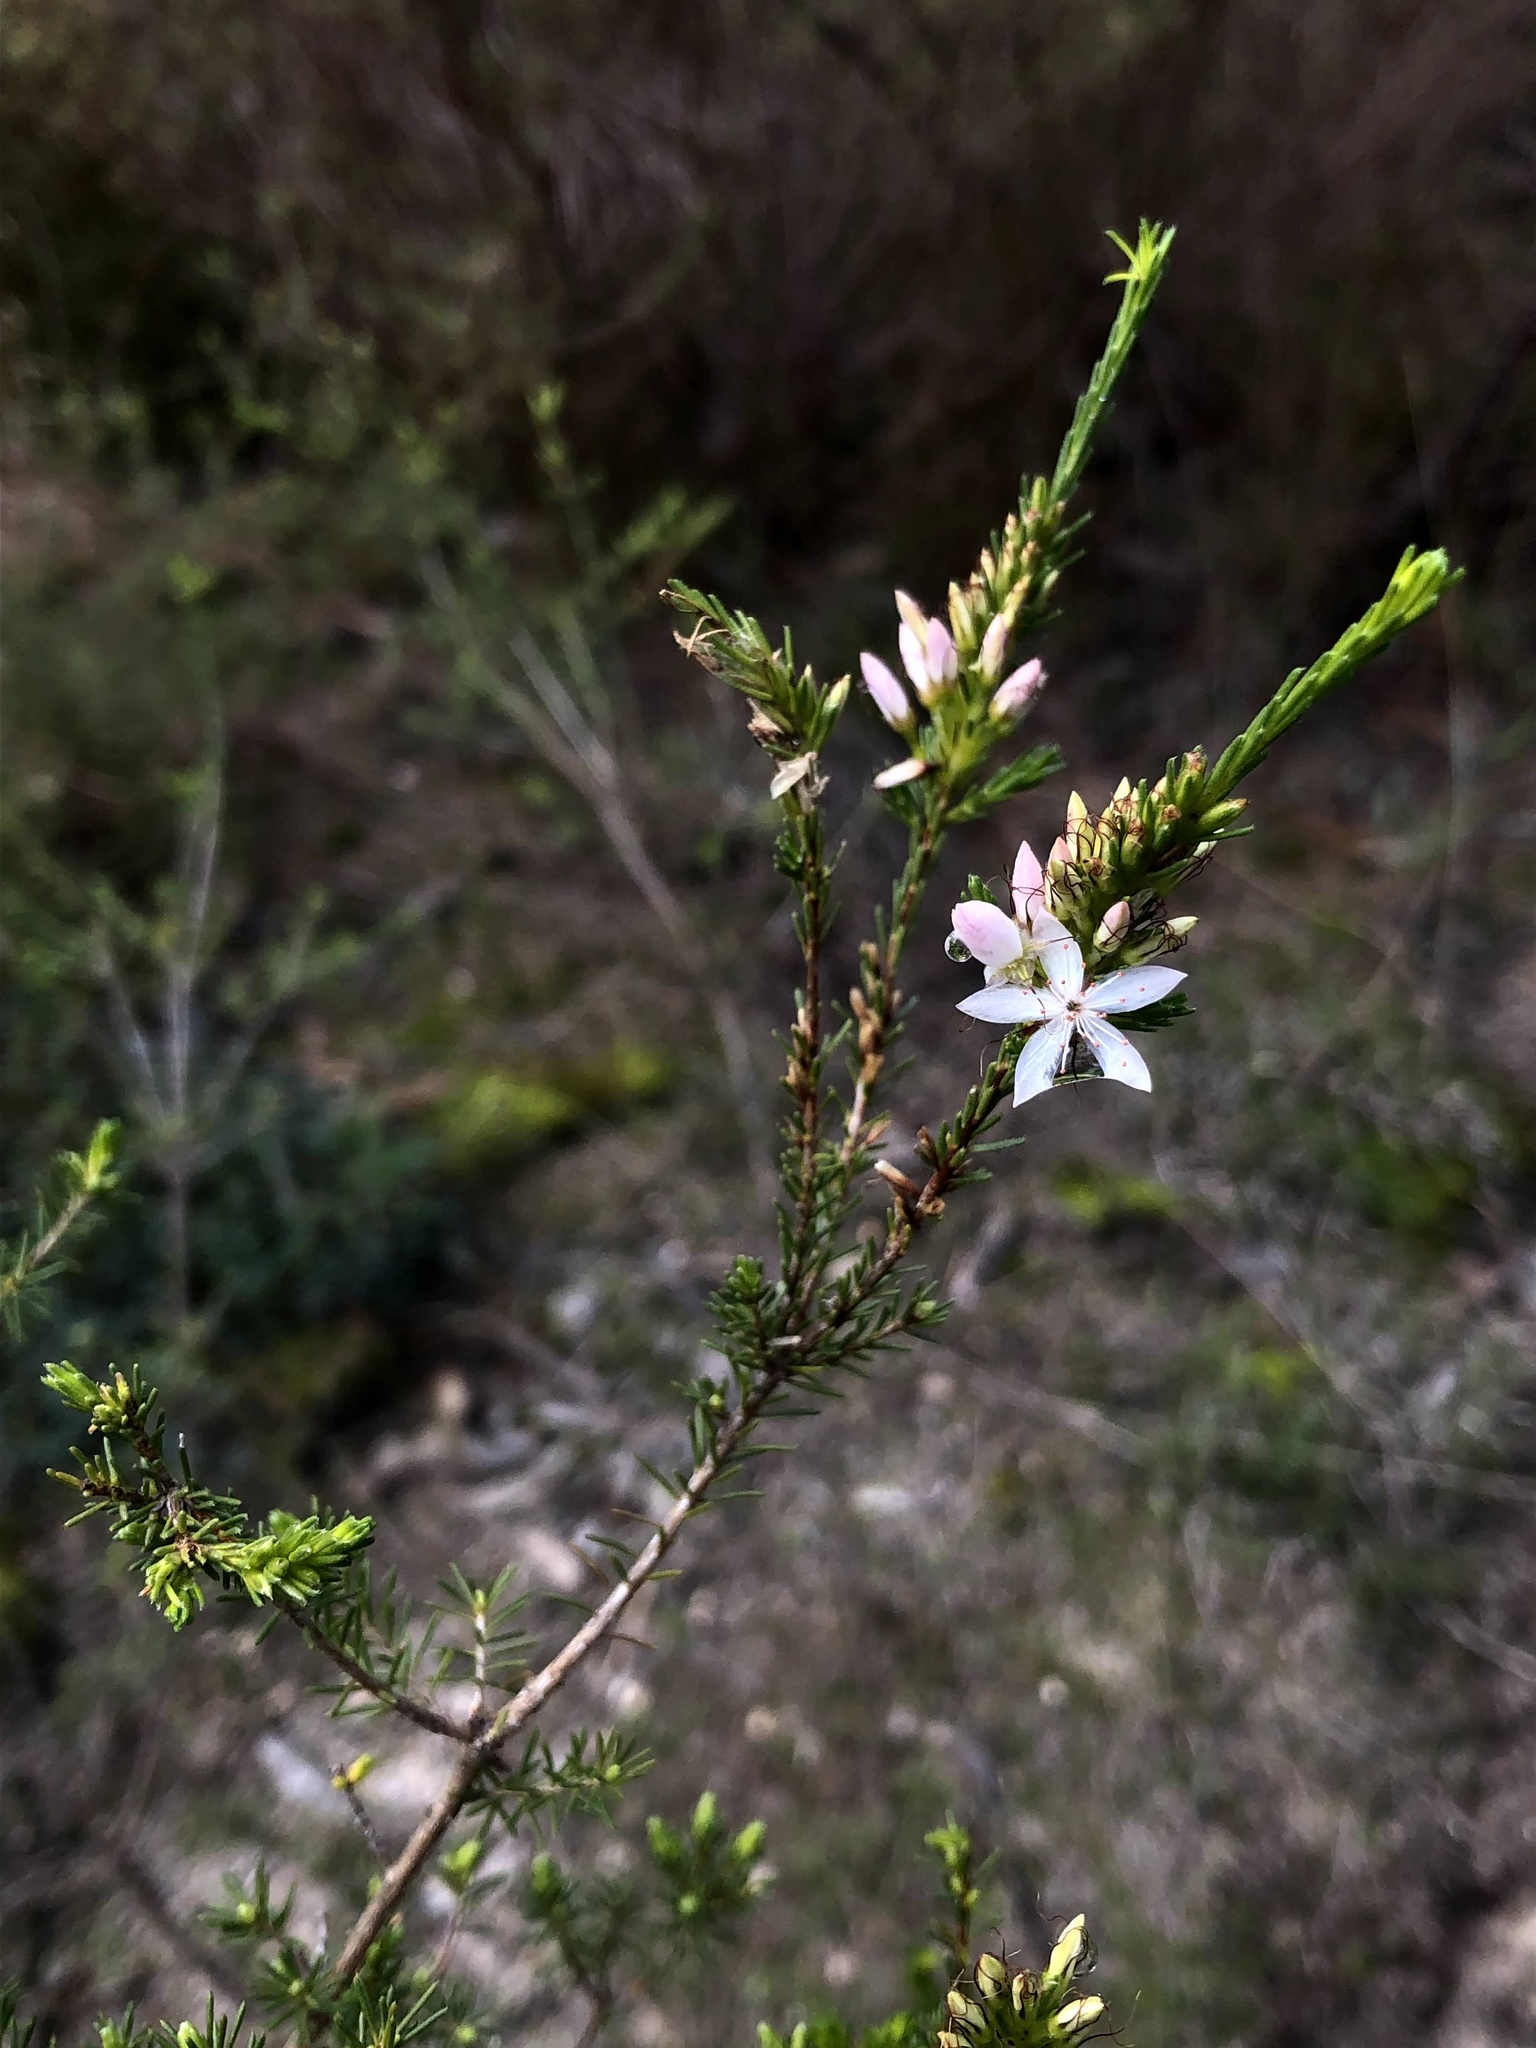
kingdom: Plantae
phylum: Tracheophyta
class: Magnoliopsida
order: Myrtales
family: Myrtaceae
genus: Calytrix
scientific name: Calytrix tetragona
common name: Common fringe myrtle
